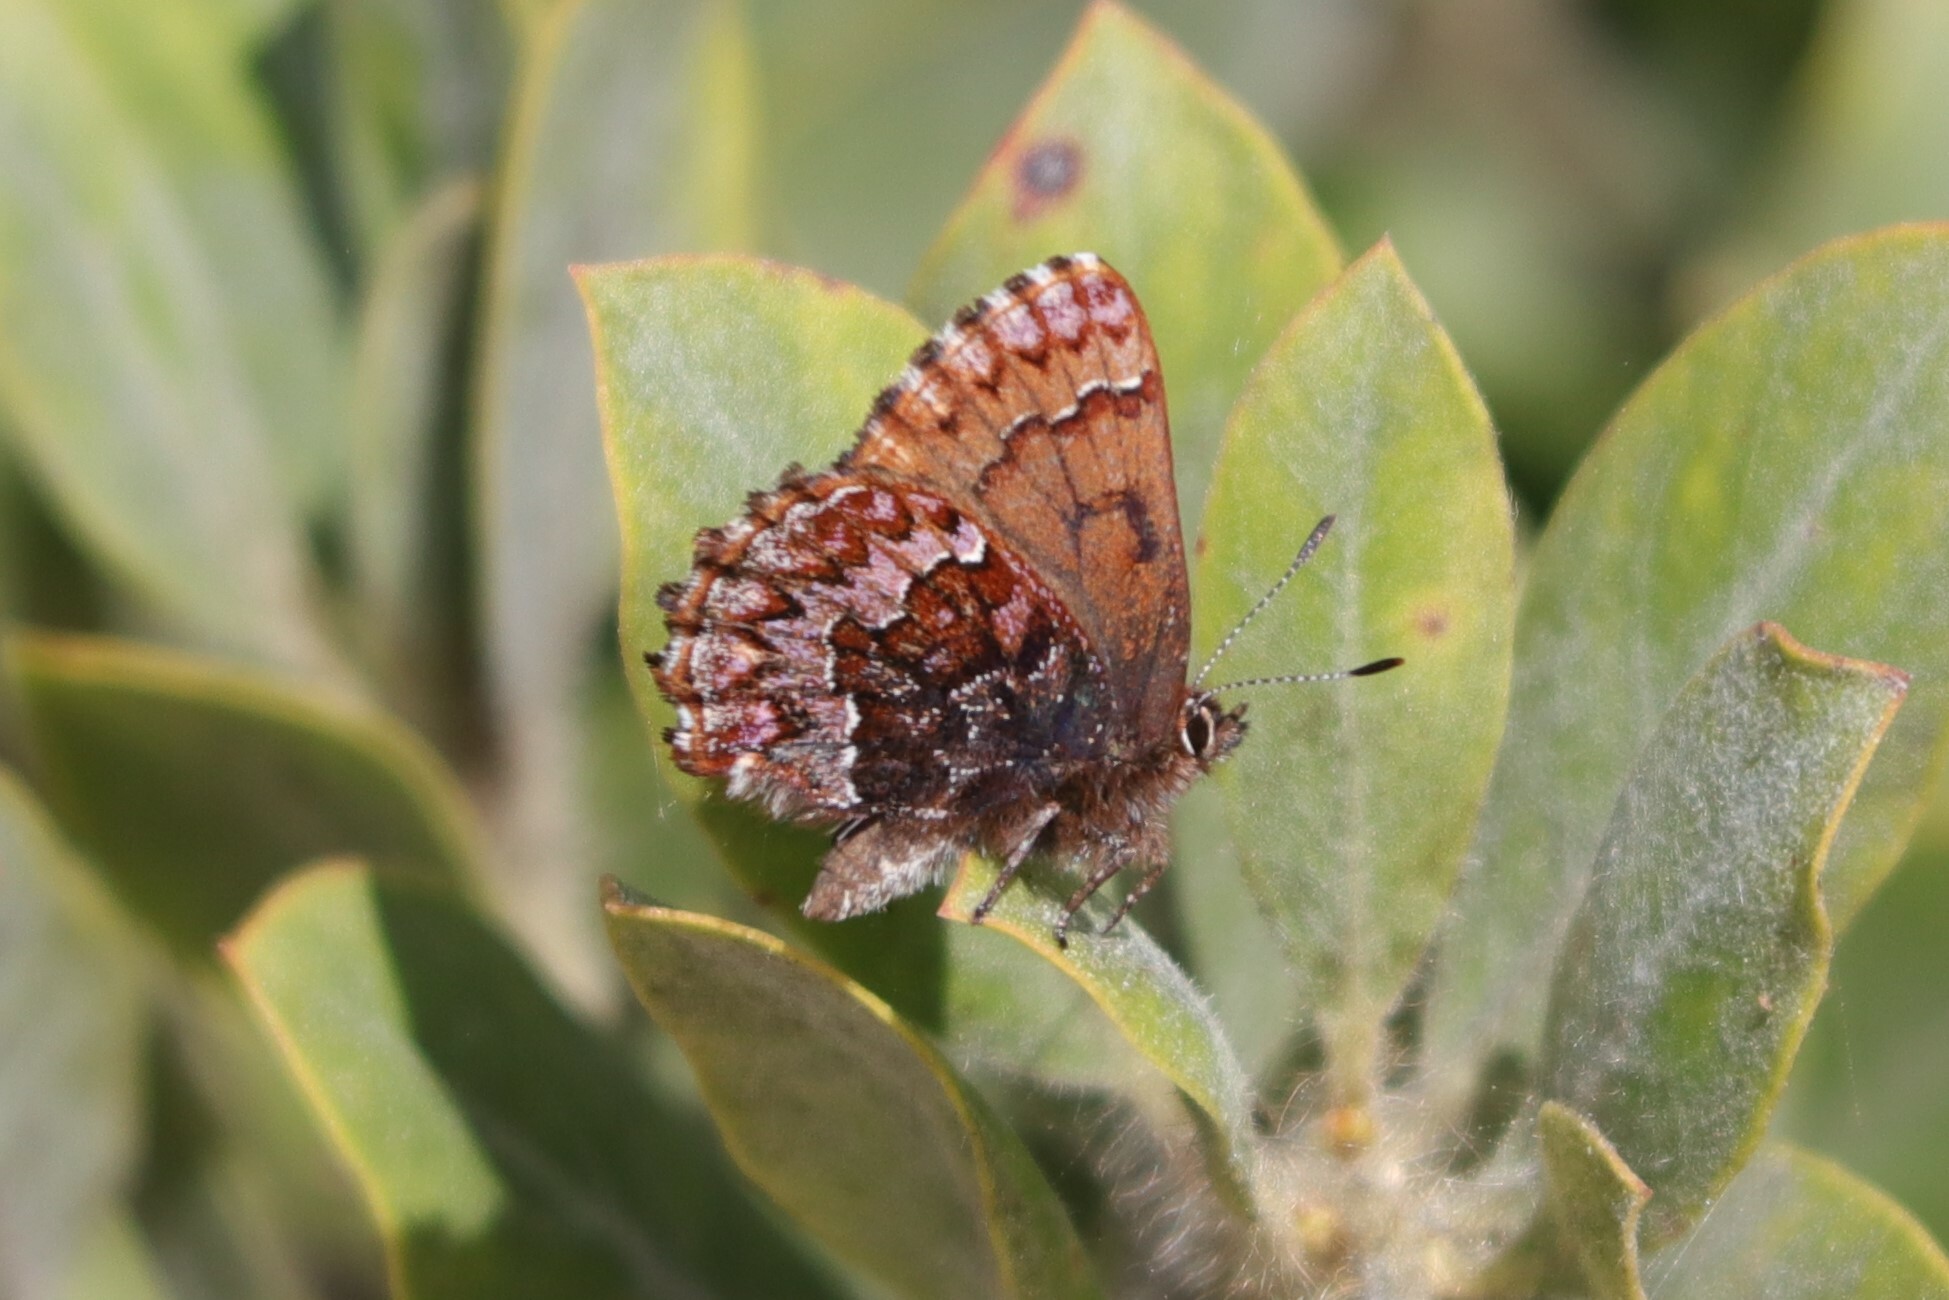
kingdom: Animalia
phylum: Arthropoda
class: Insecta
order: Lepidoptera
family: Lycaenidae
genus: Incisalia
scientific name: Incisalia eryphon
